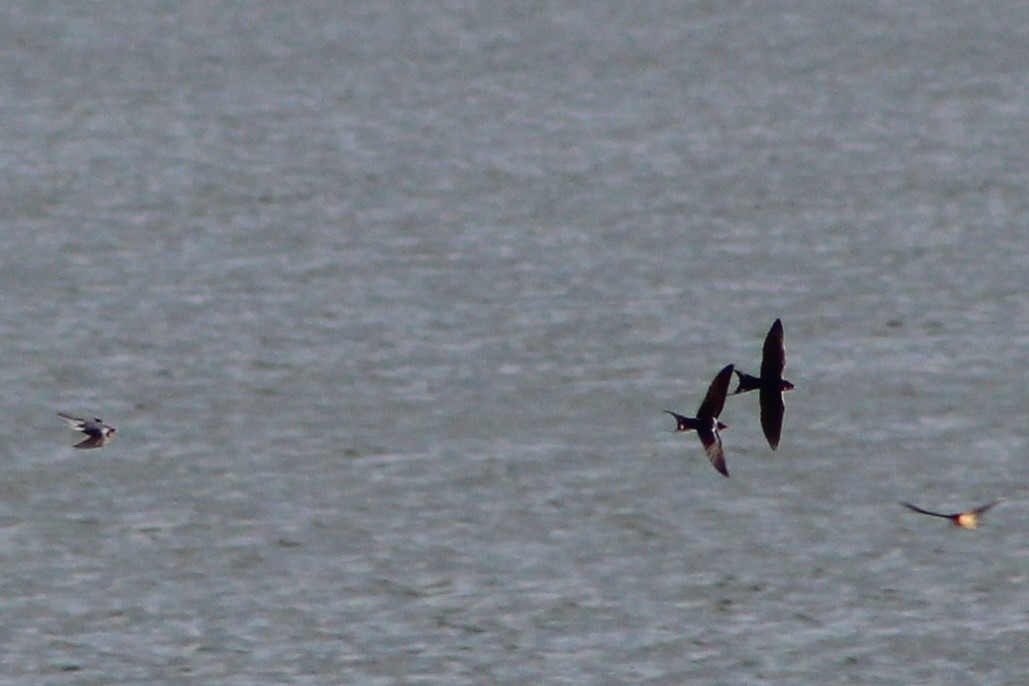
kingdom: Animalia
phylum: Chordata
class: Aves
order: Passeriformes
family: Hirundinidae
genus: Hirundo
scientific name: Hirundo rustica
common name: Barn swallow
